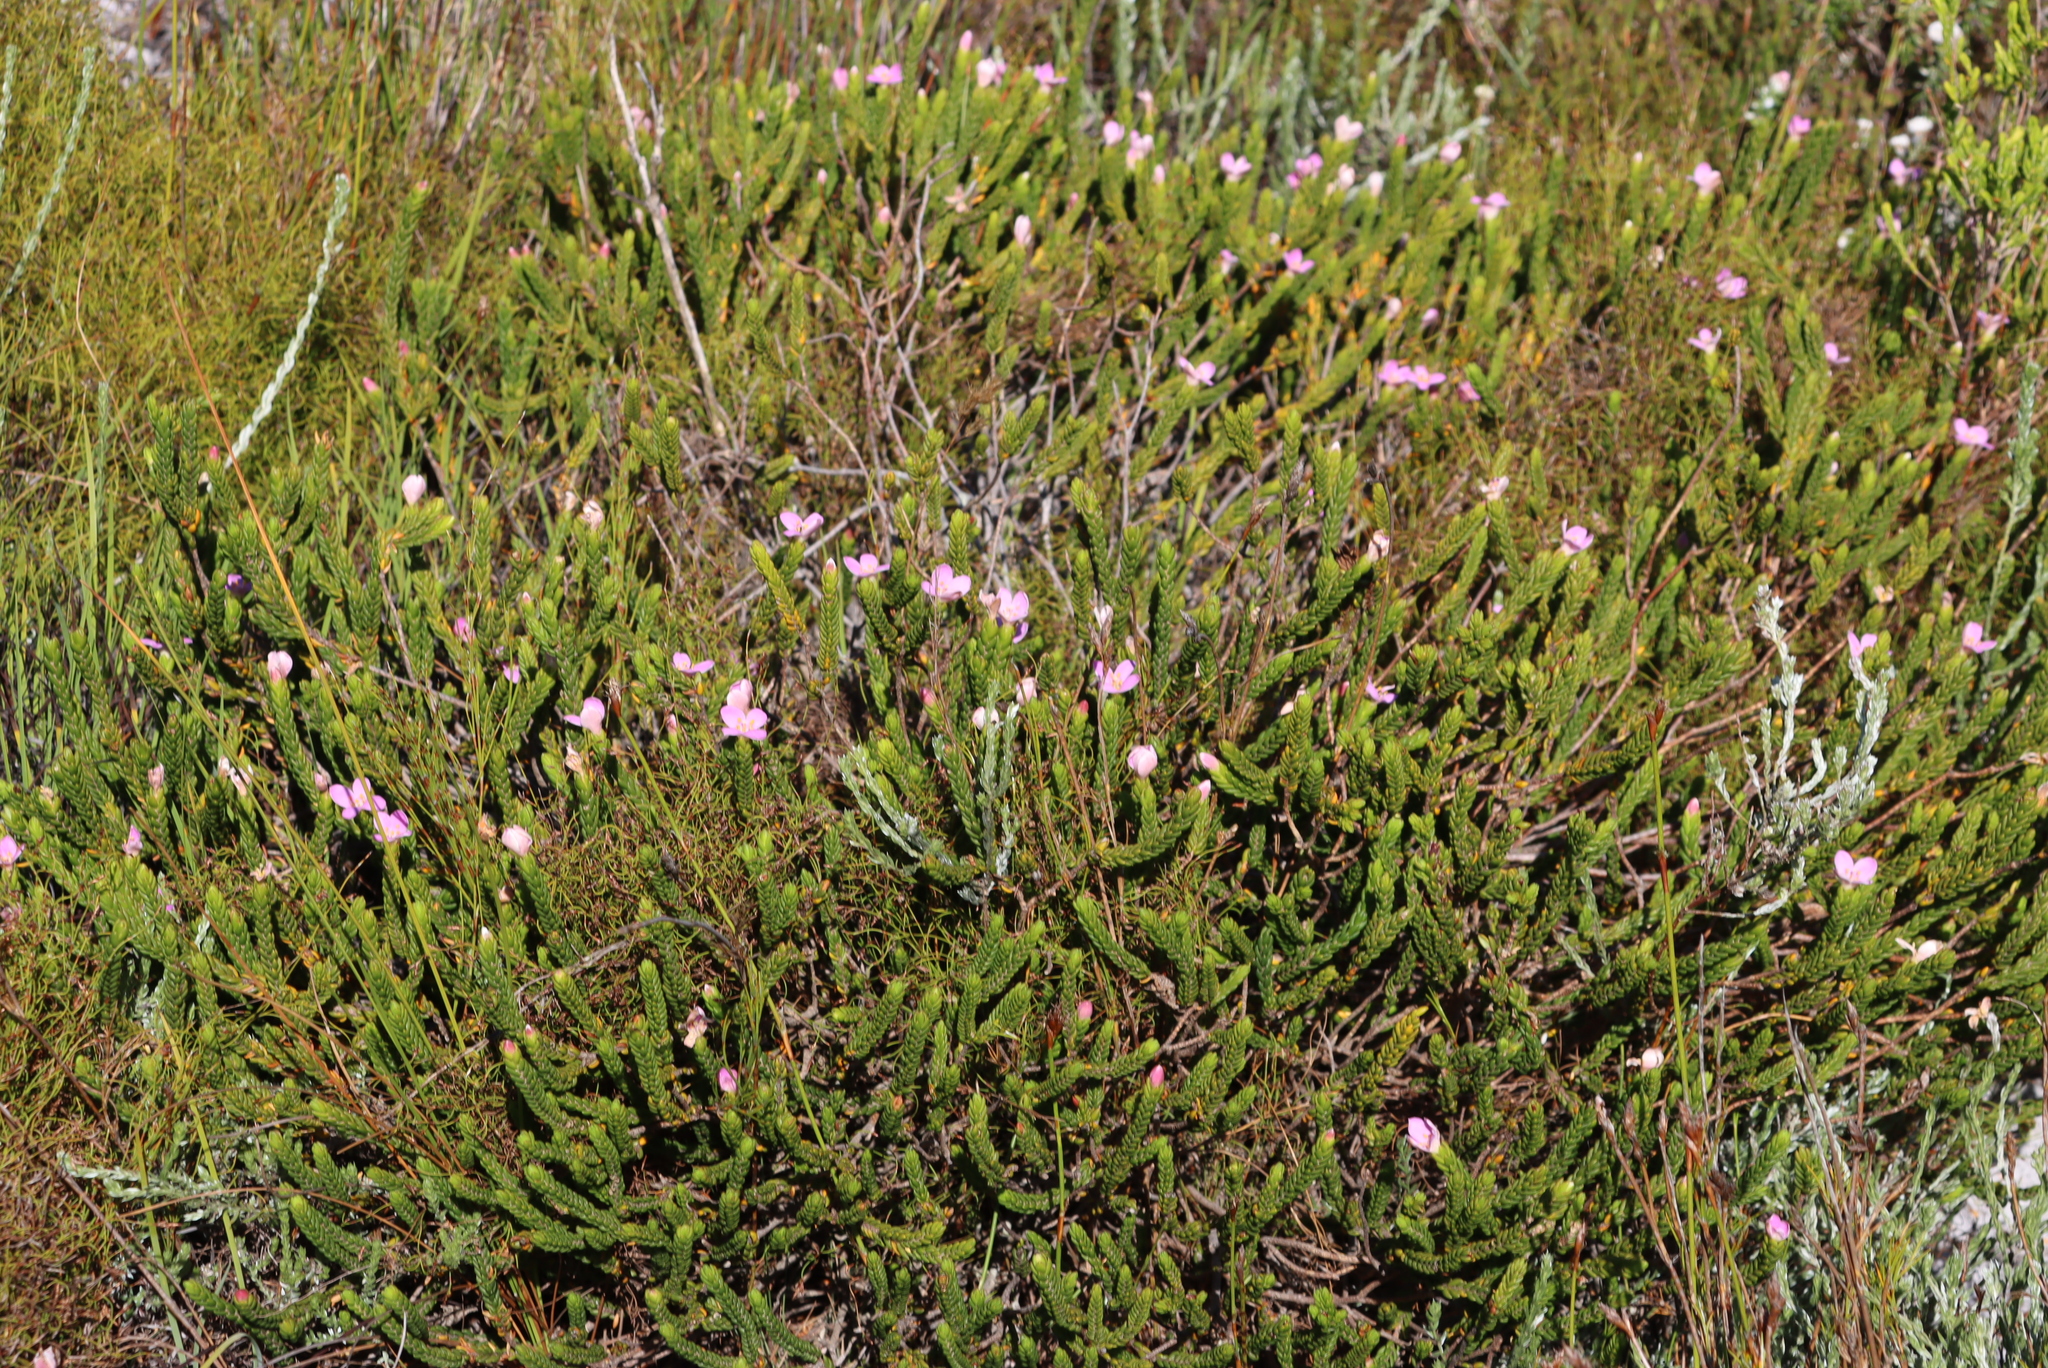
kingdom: Plantae
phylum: Tracheophyta
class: Magnoliopsida
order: Malvales
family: Thymelaeaceae
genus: Lachnaea
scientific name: Lachnaea grandiflora
